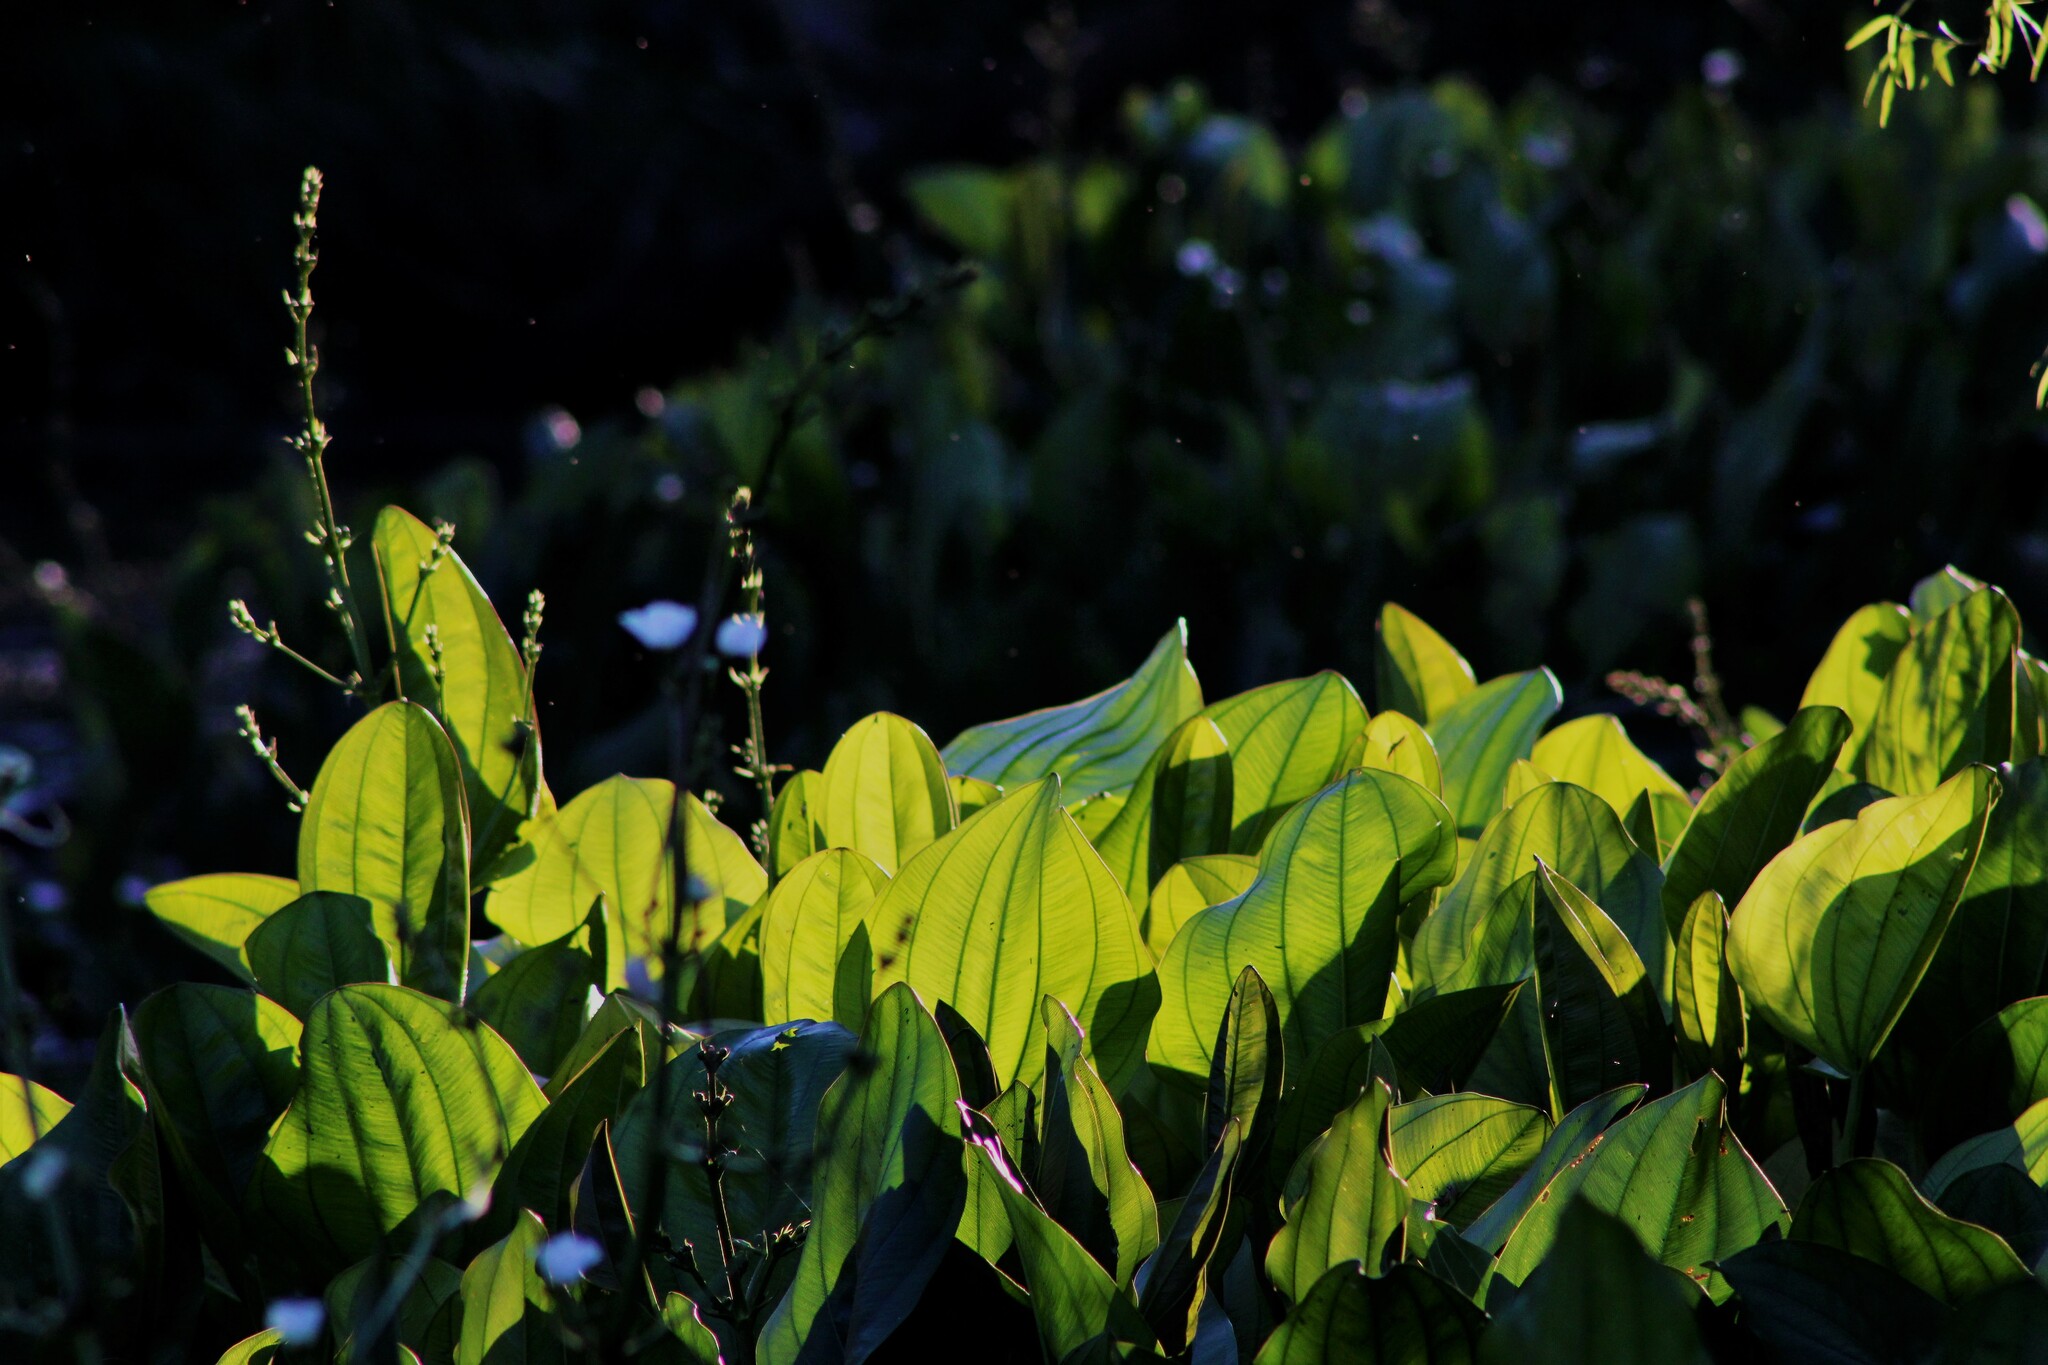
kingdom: Plantae
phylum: Tracheophyta
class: Liliopsida
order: Alismatales
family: Alismataceae
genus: Aquarius
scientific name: Aquarius grandiflorus
